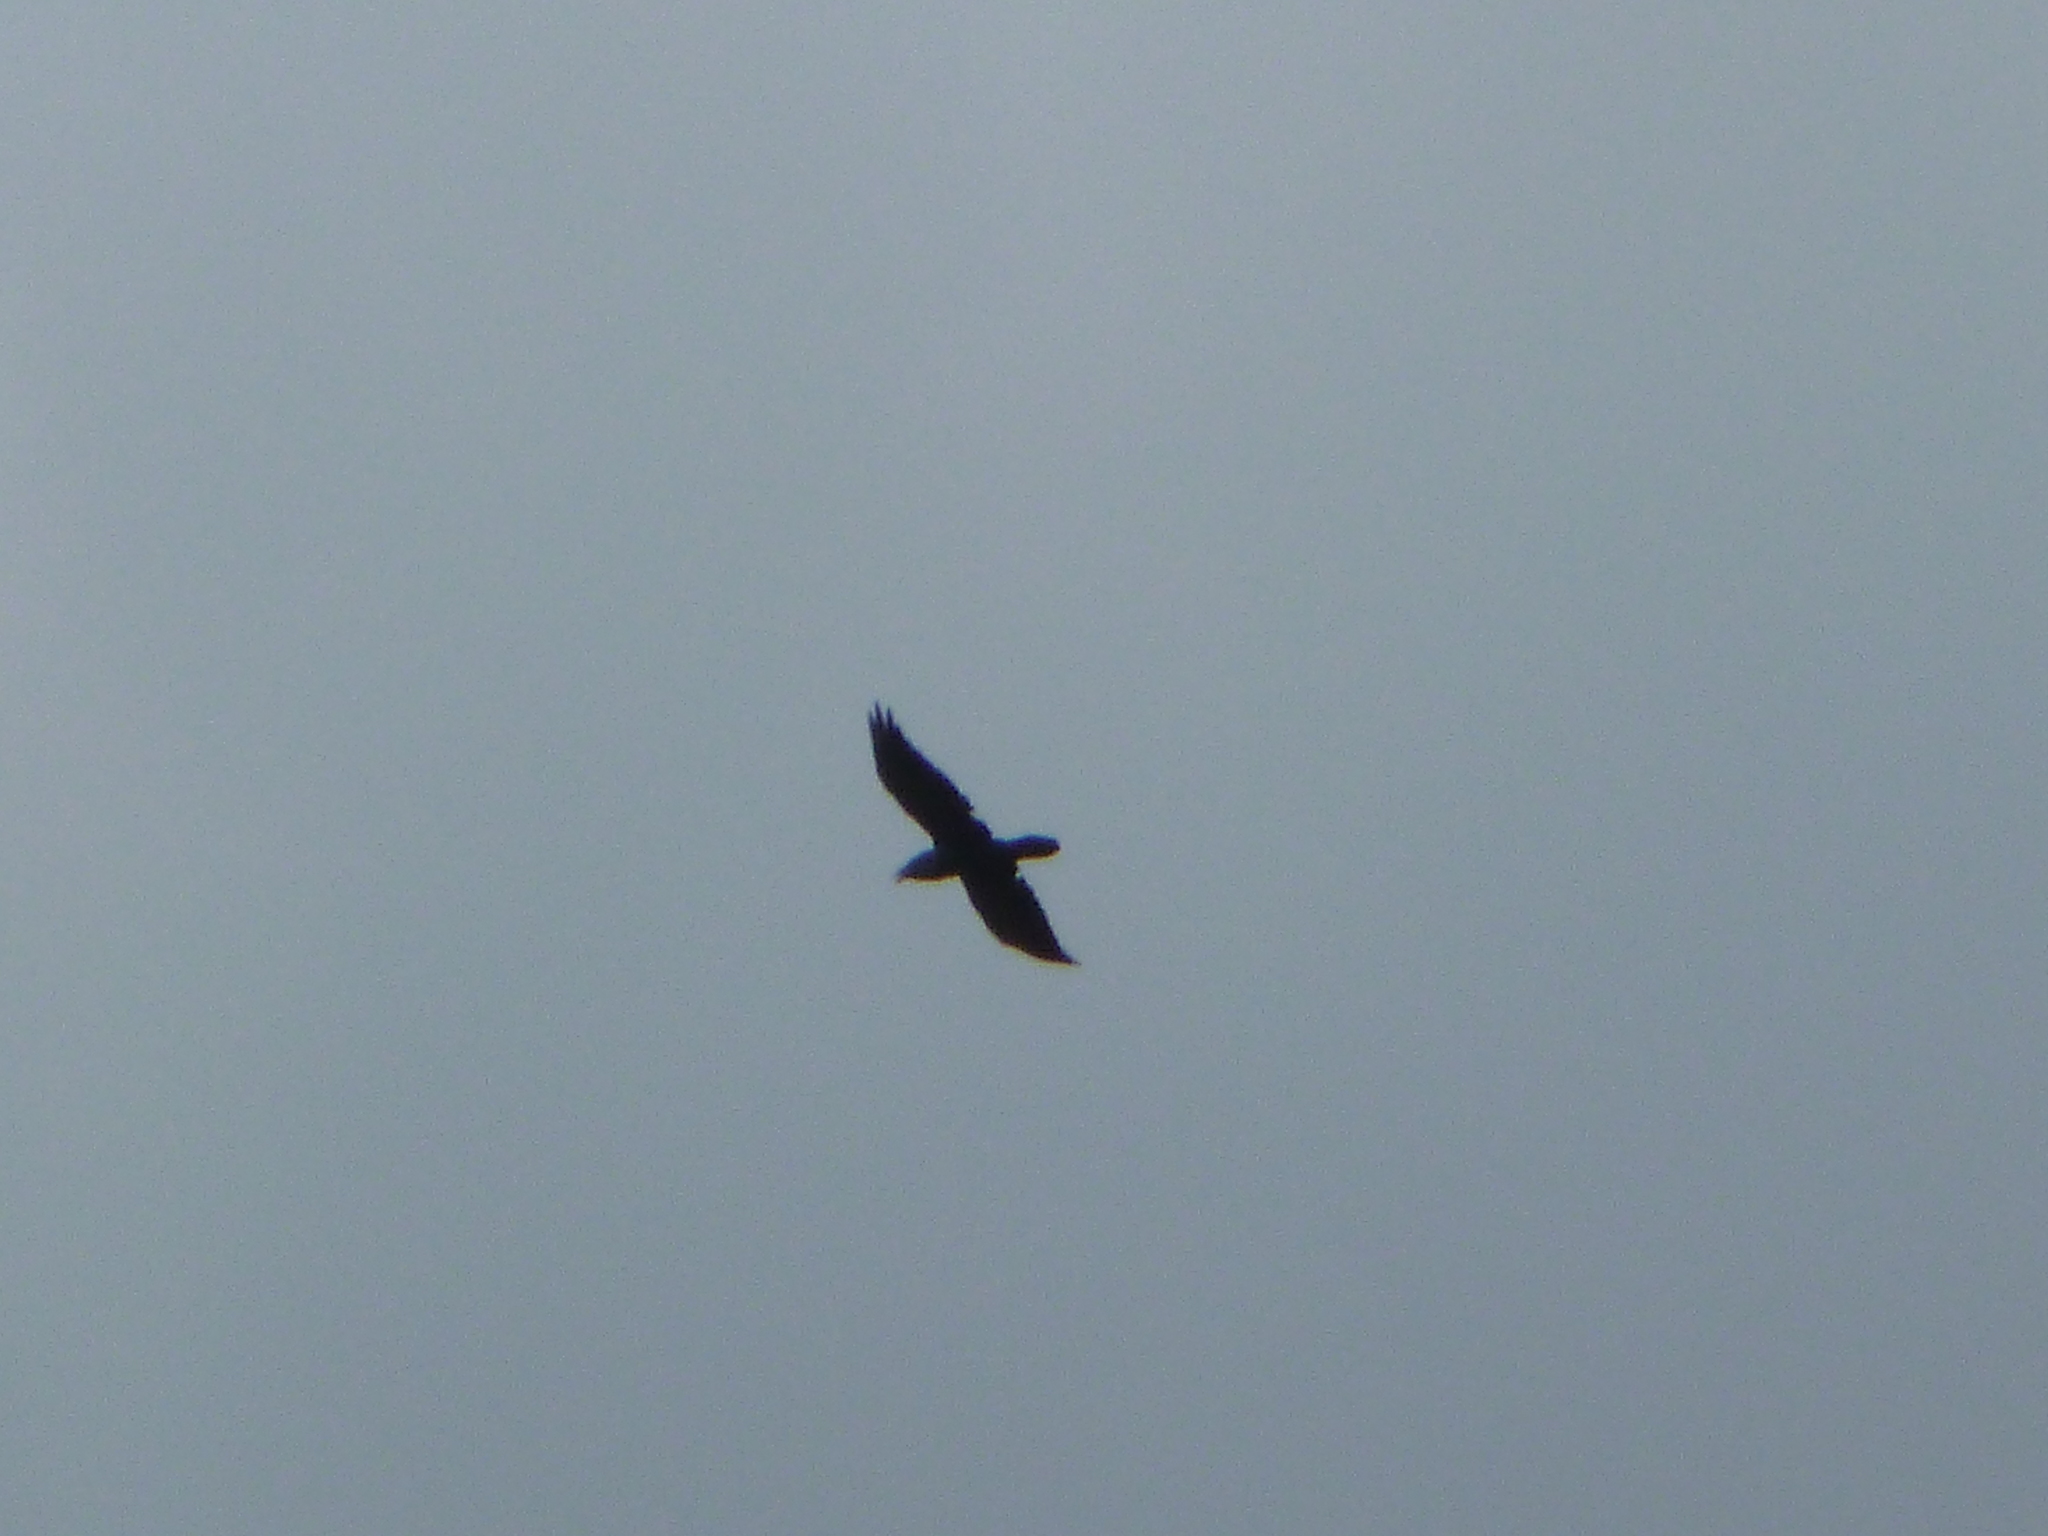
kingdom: Animalia
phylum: Chordata
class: Aves
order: Passeriformes
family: Corvidae
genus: Corvus
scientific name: Corvus corax
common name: Common raven
